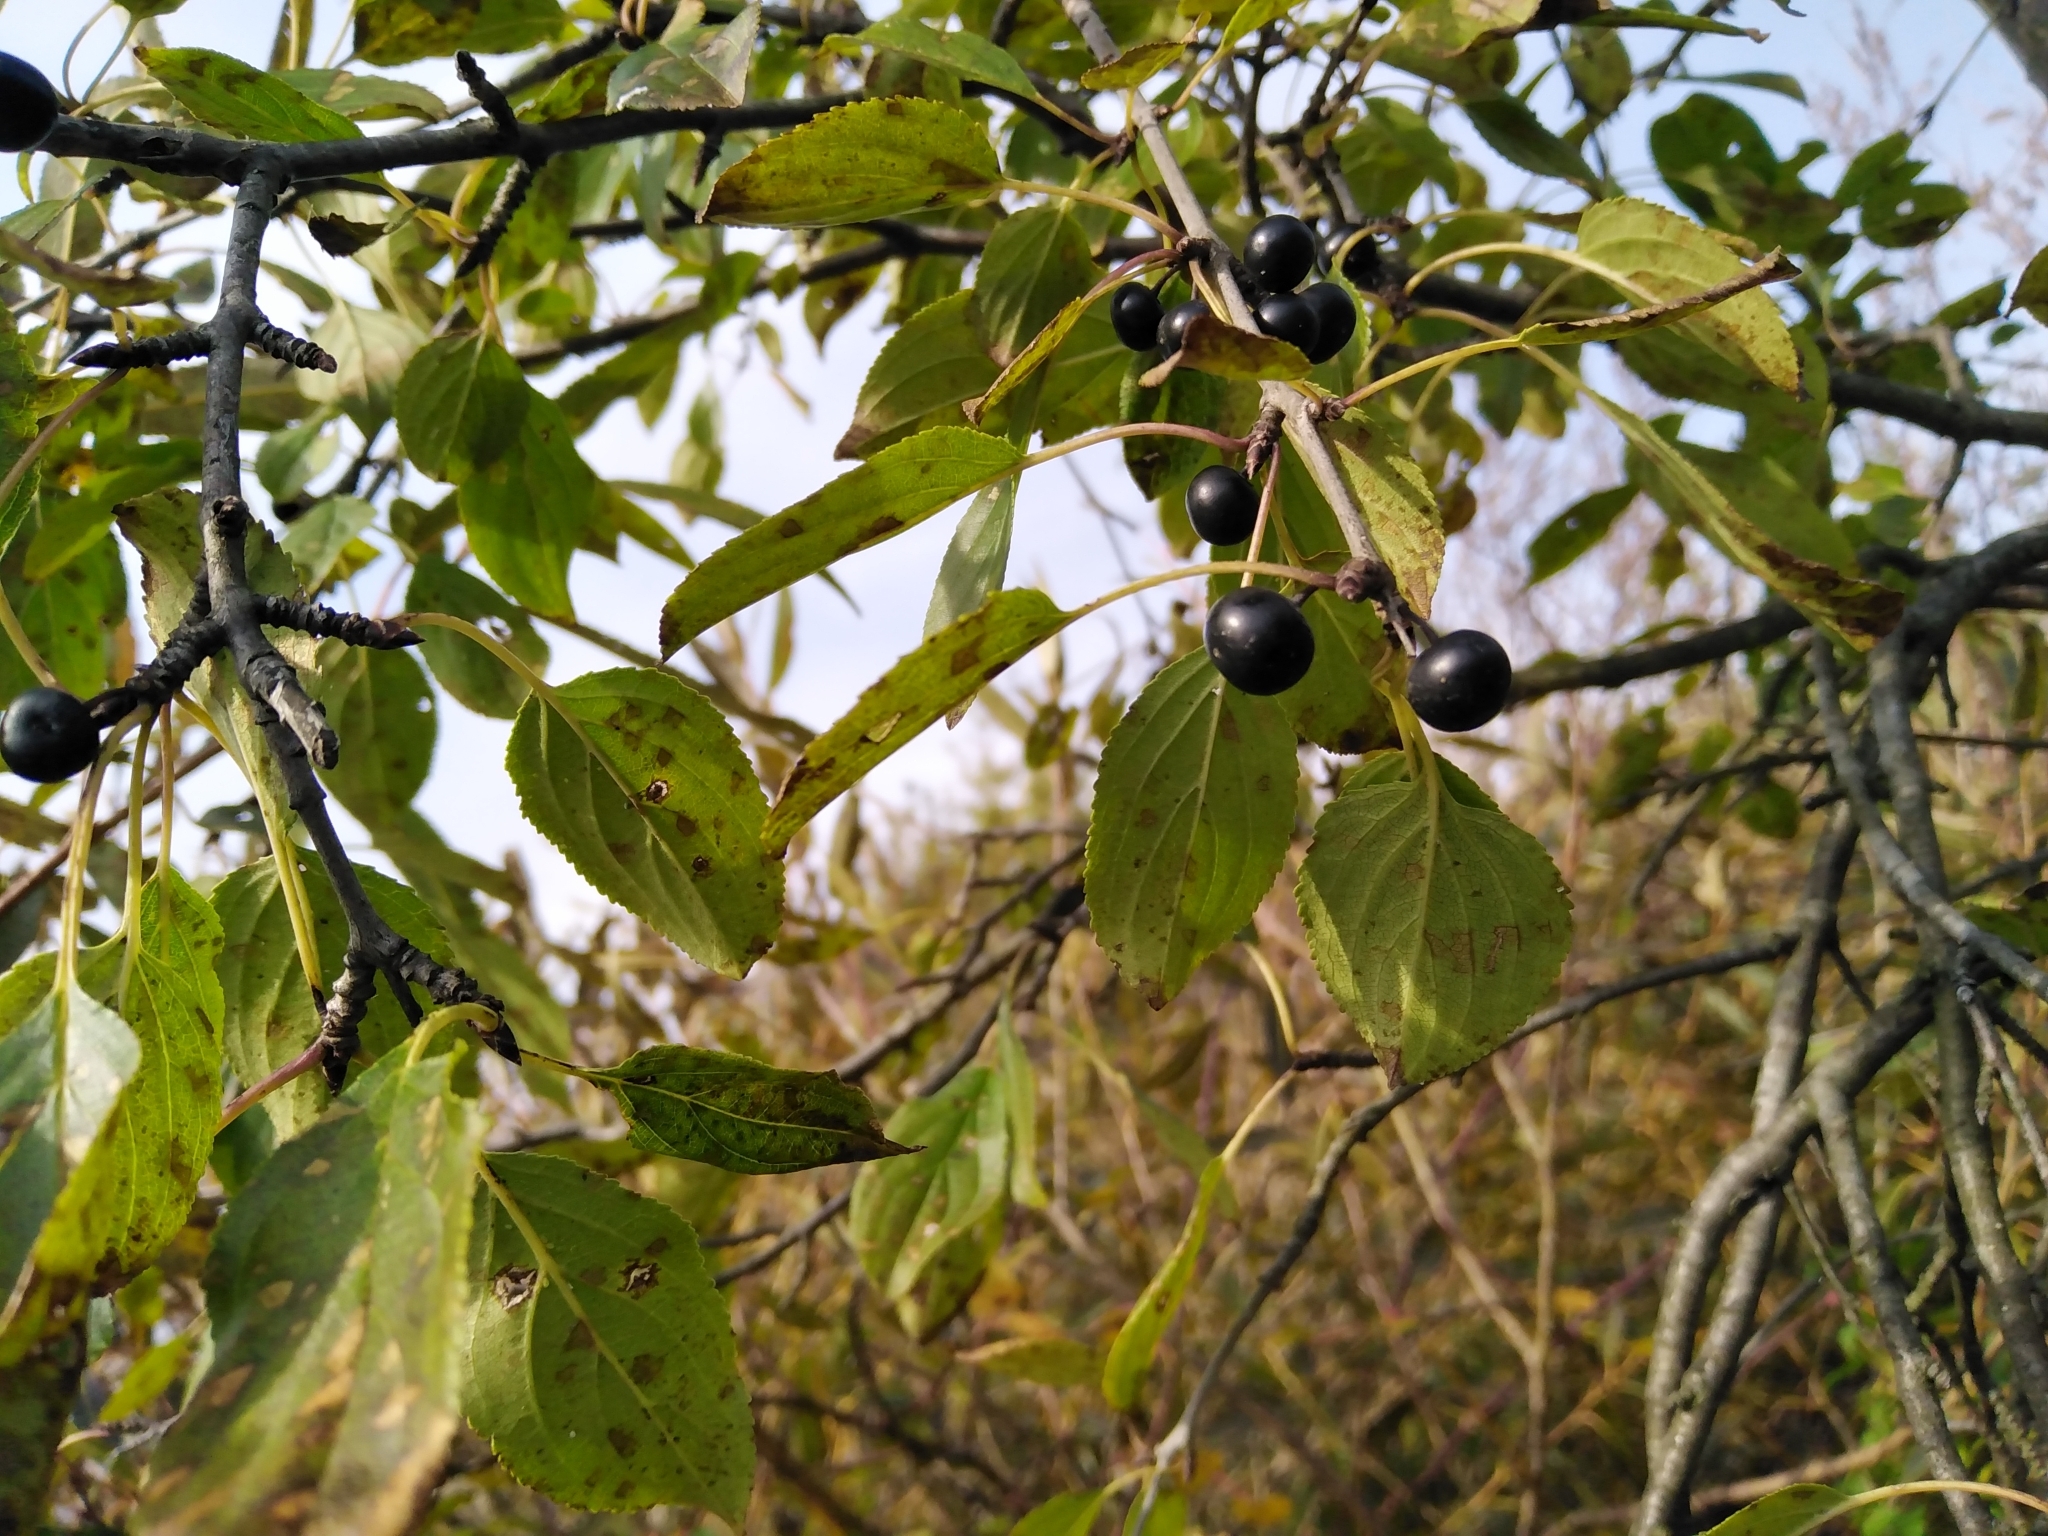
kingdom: Plantae
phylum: Tracheophyta
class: Magnoliopsida
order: Rosales
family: Rhamnaceae
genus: Rhamnus
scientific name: Rhamnus cathartica
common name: Common buckthorn
